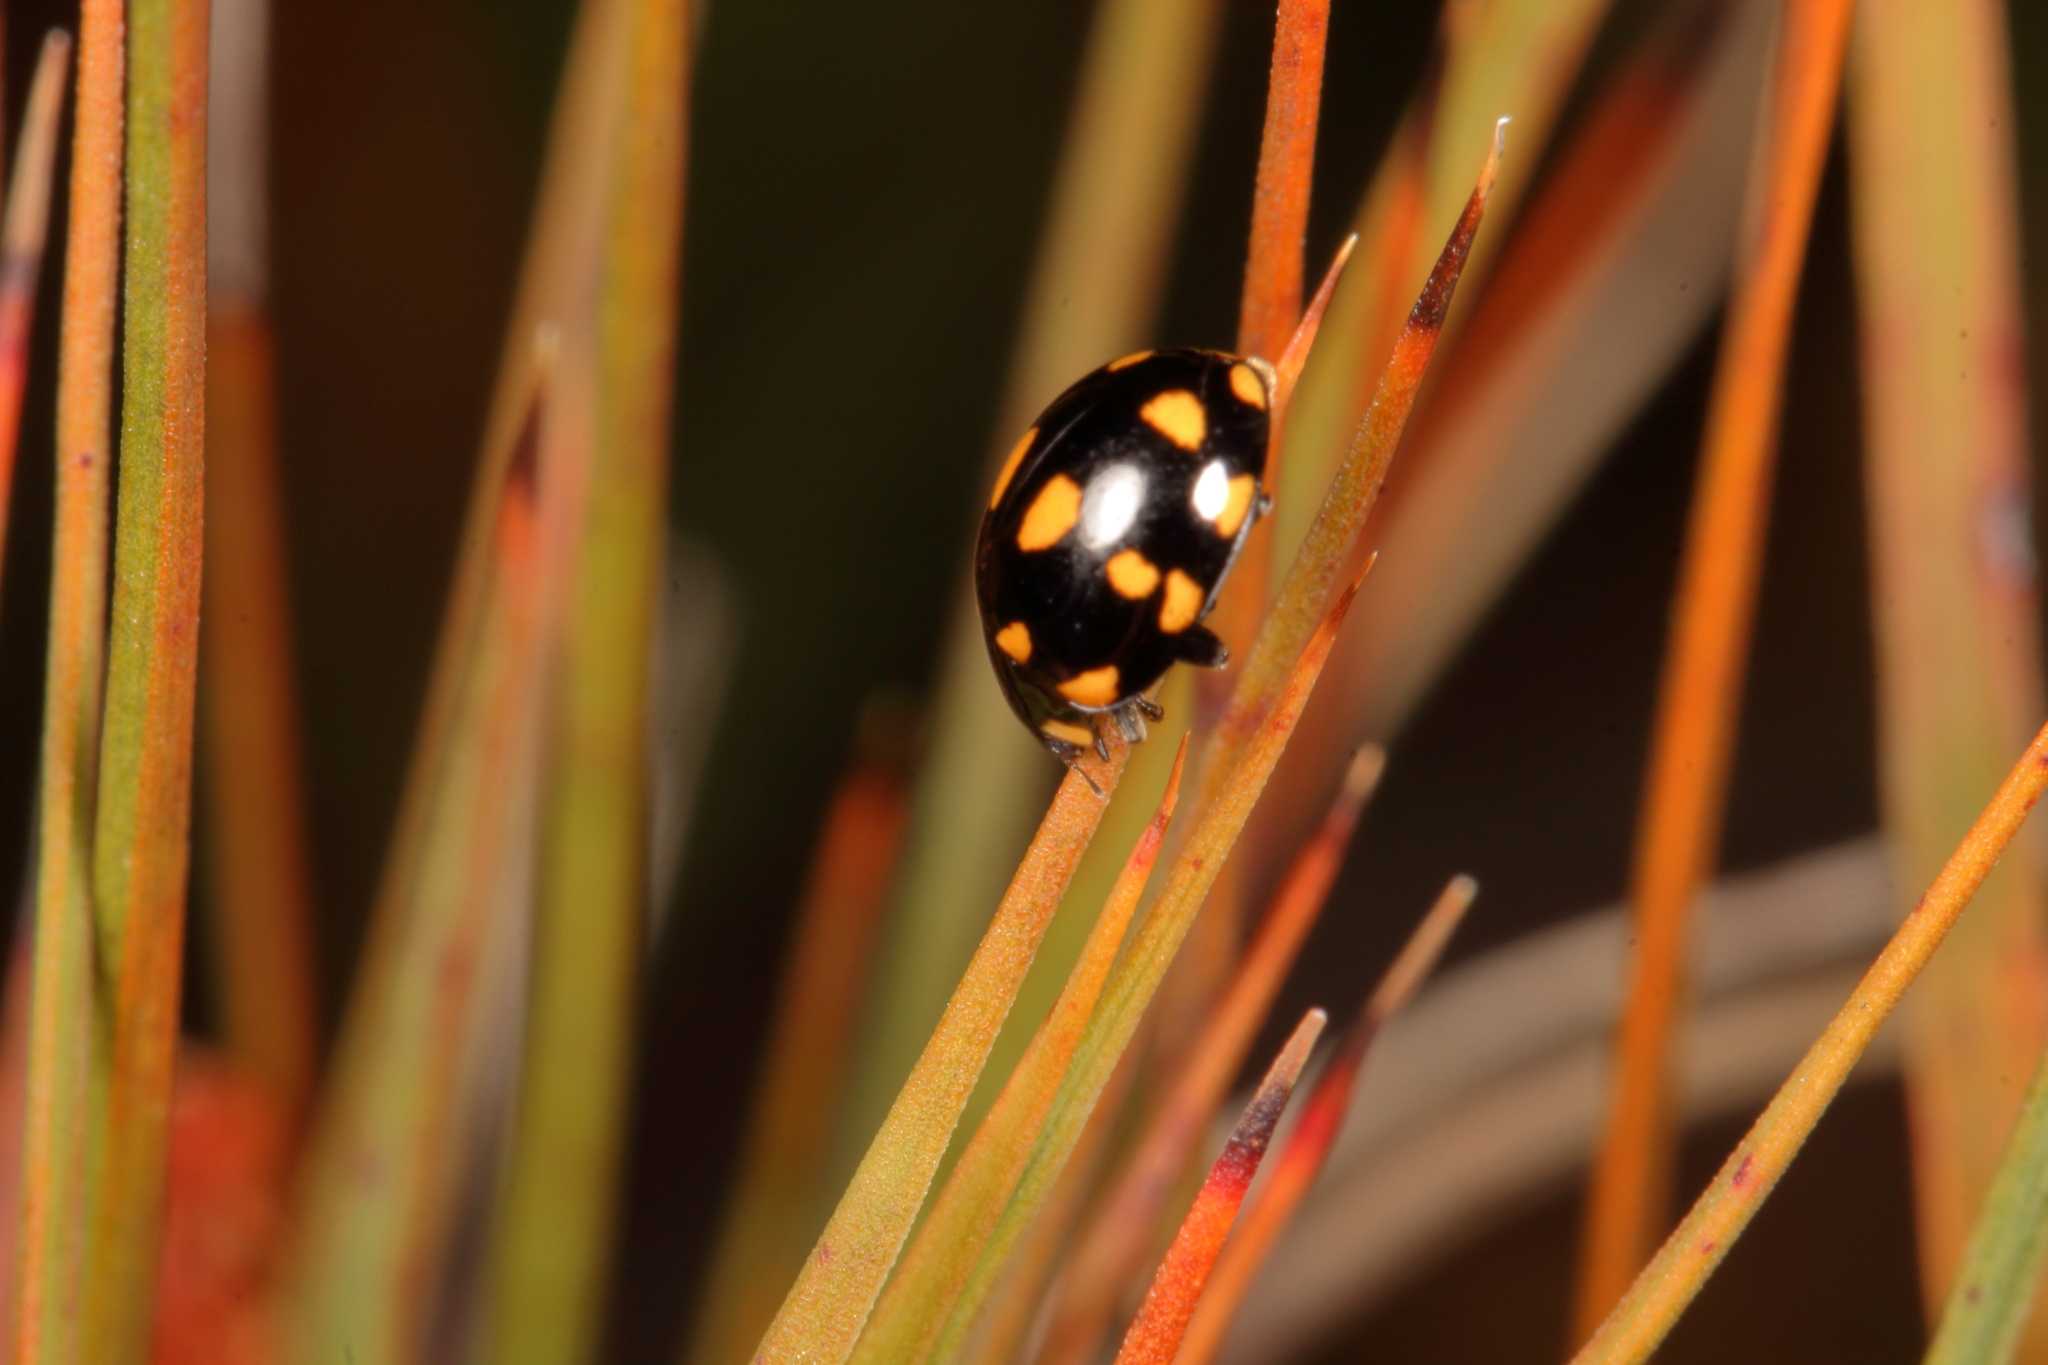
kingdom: Animalia
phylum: Arthropoda
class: Insecta
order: Coleoptera
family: Coccinellidae
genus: Coccinella
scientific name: Coccinella leonina
